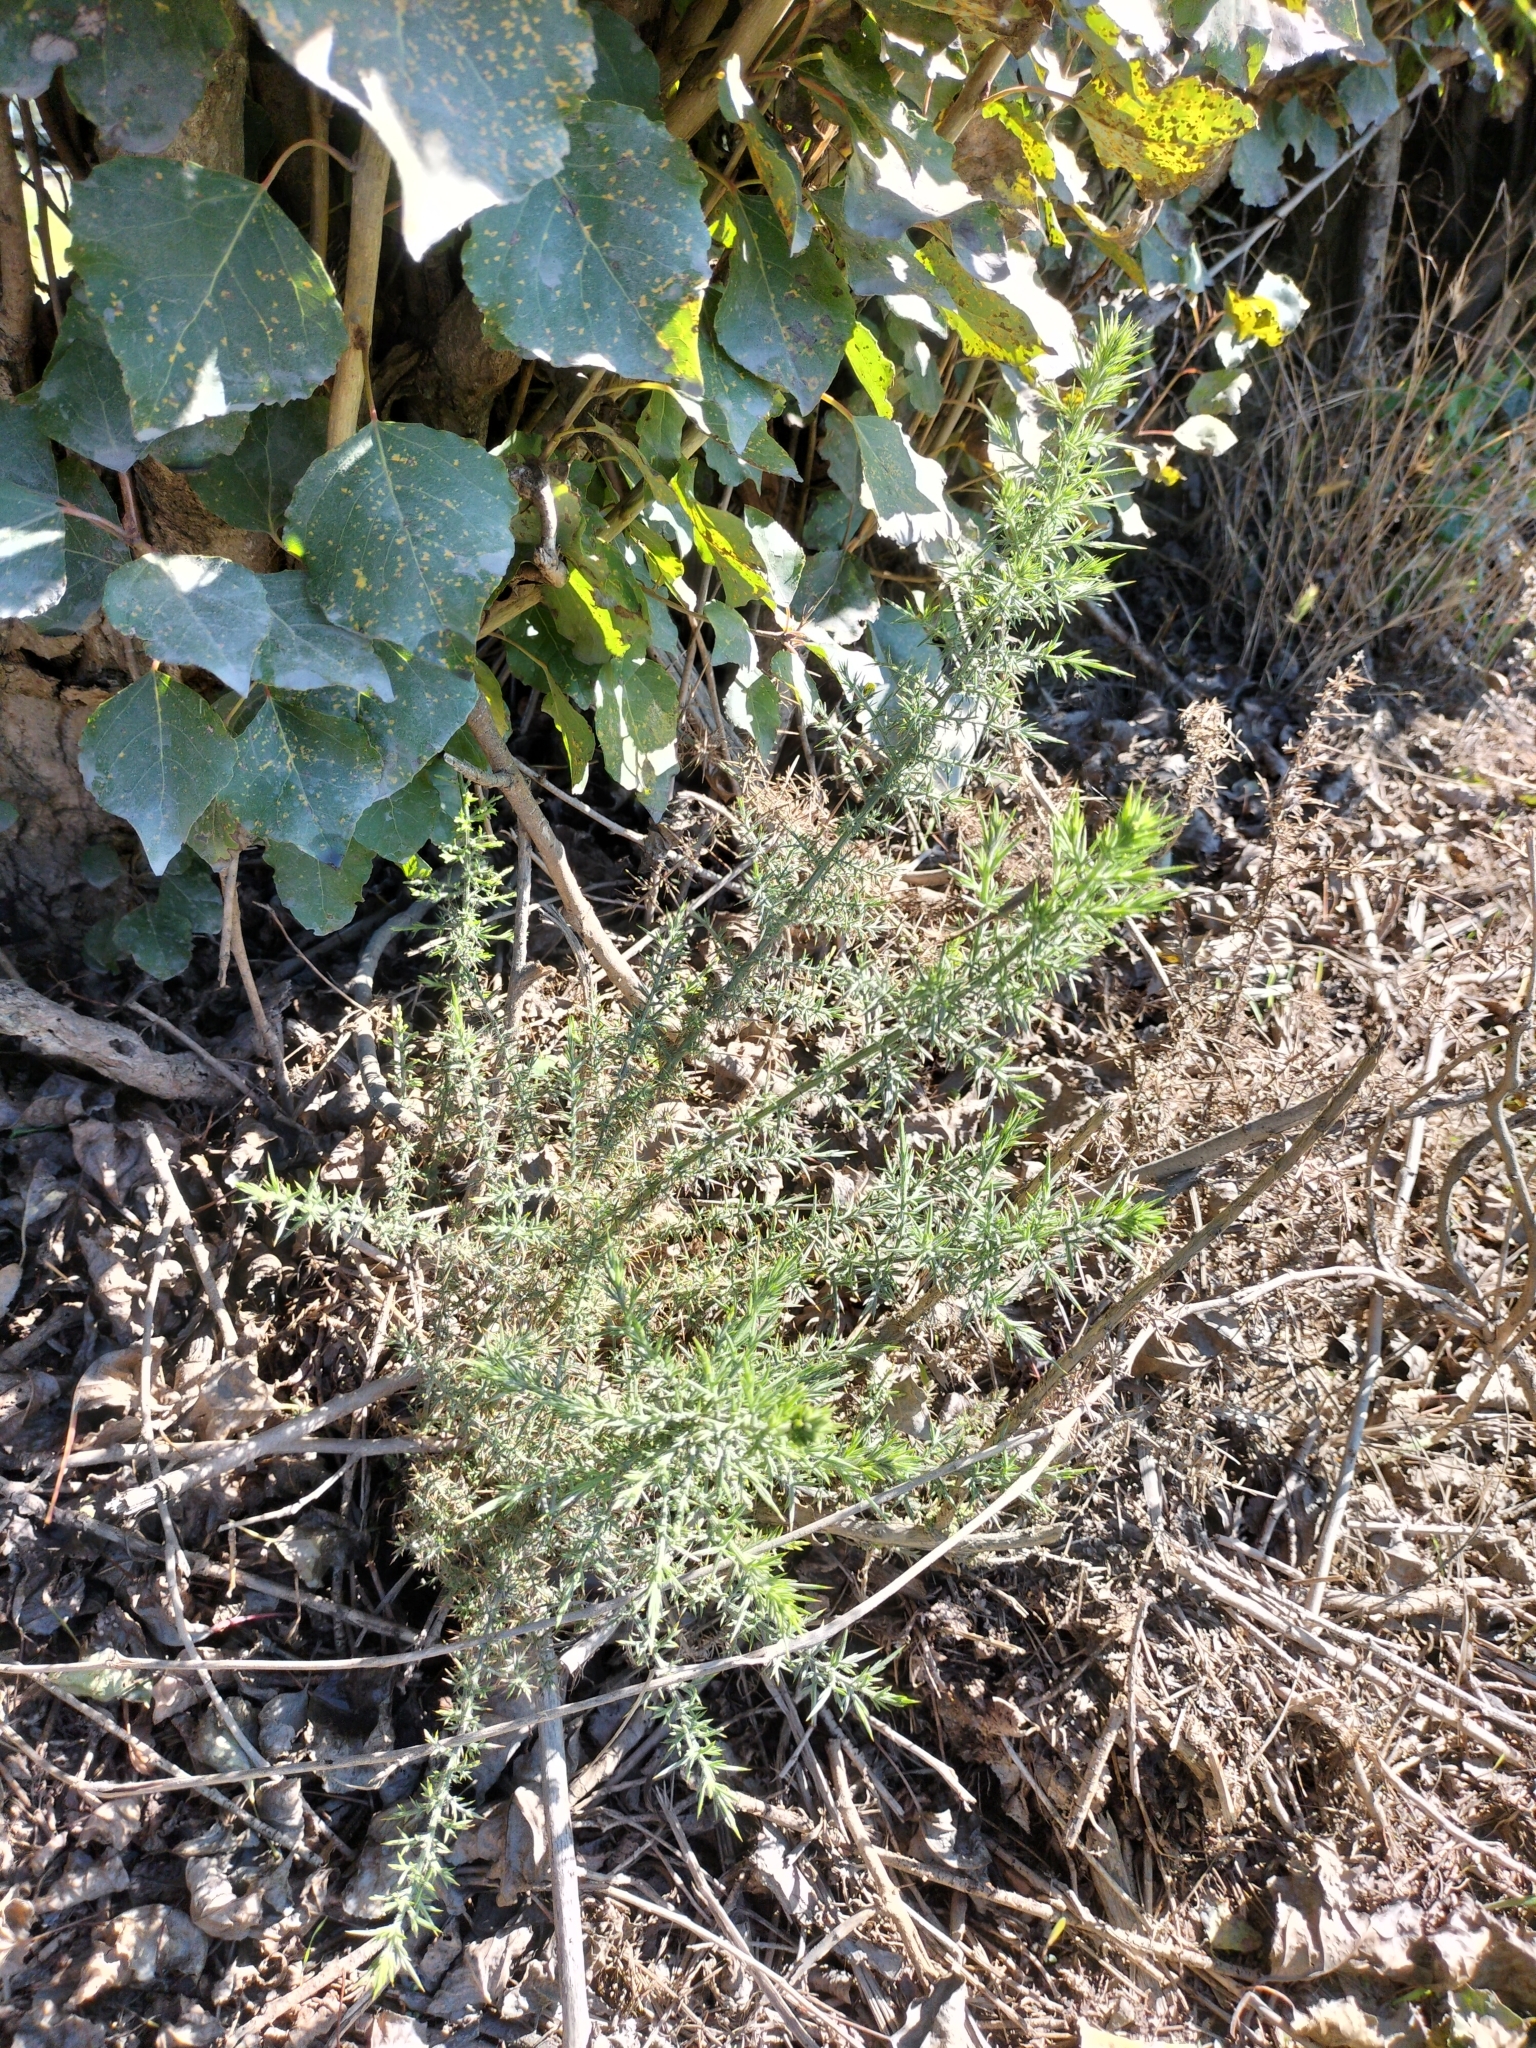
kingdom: Plantae
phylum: Tracheophyta
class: Magnoliopsida
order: Fabales
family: Fabaceae
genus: Ulex
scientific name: Ulex europaeus
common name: Common gorse
